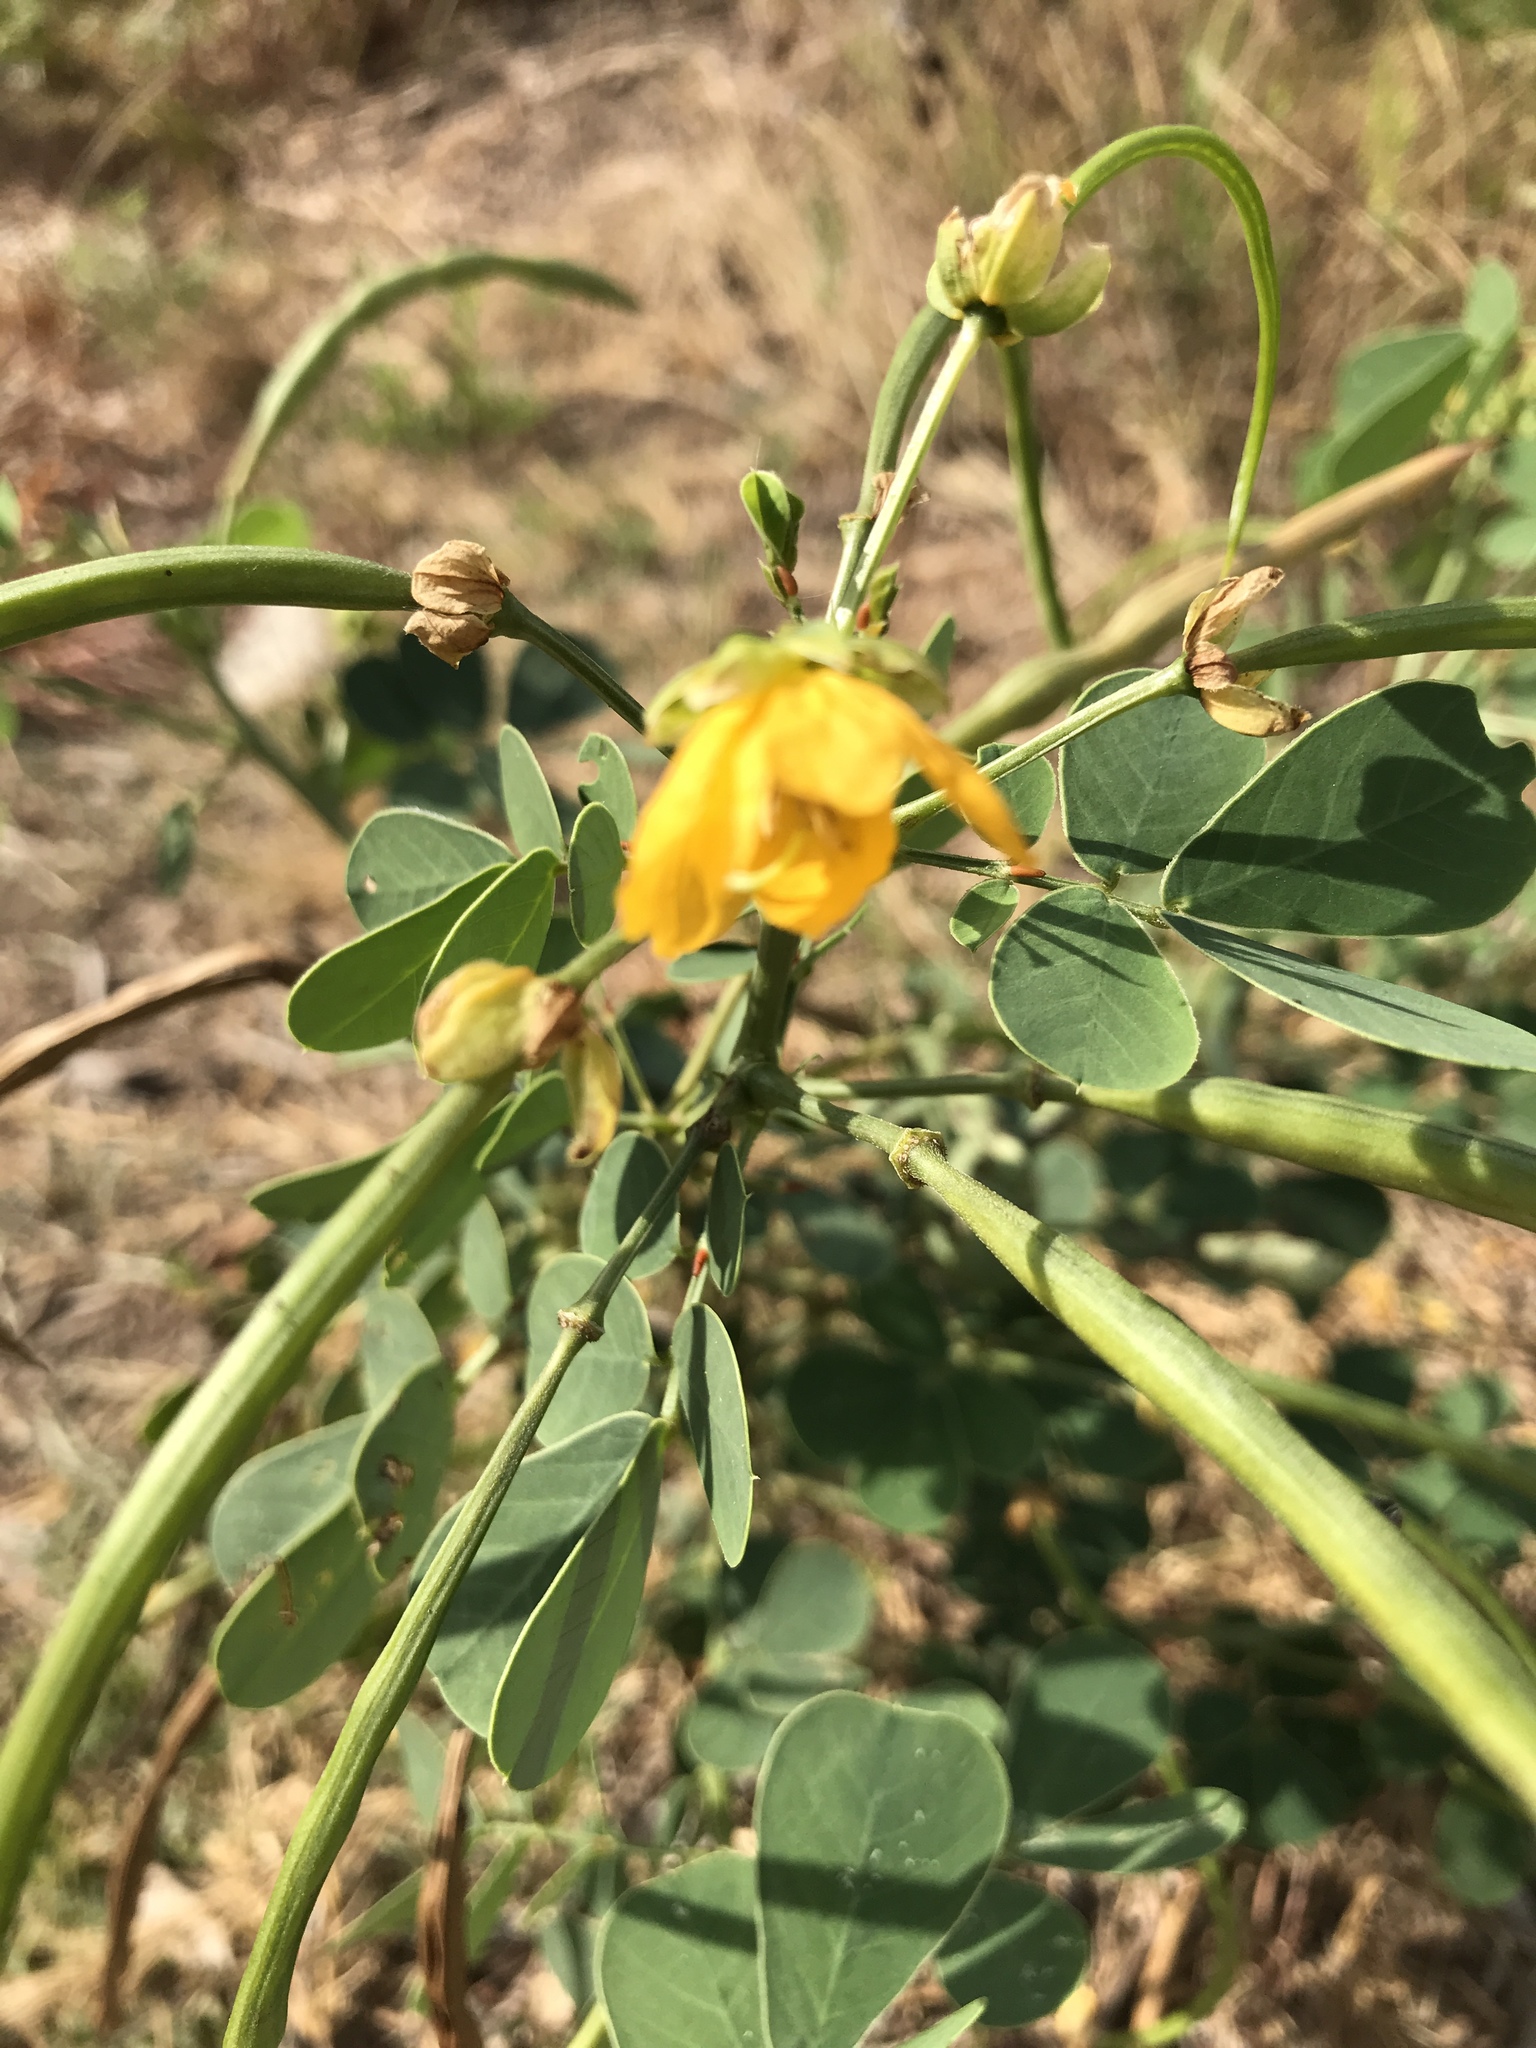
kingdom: Plantae
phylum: Tracheophyta
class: Magnoliopsida
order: Fabales
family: Fabaceae
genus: Senna
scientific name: Senna obtusifolia
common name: Java-bean
